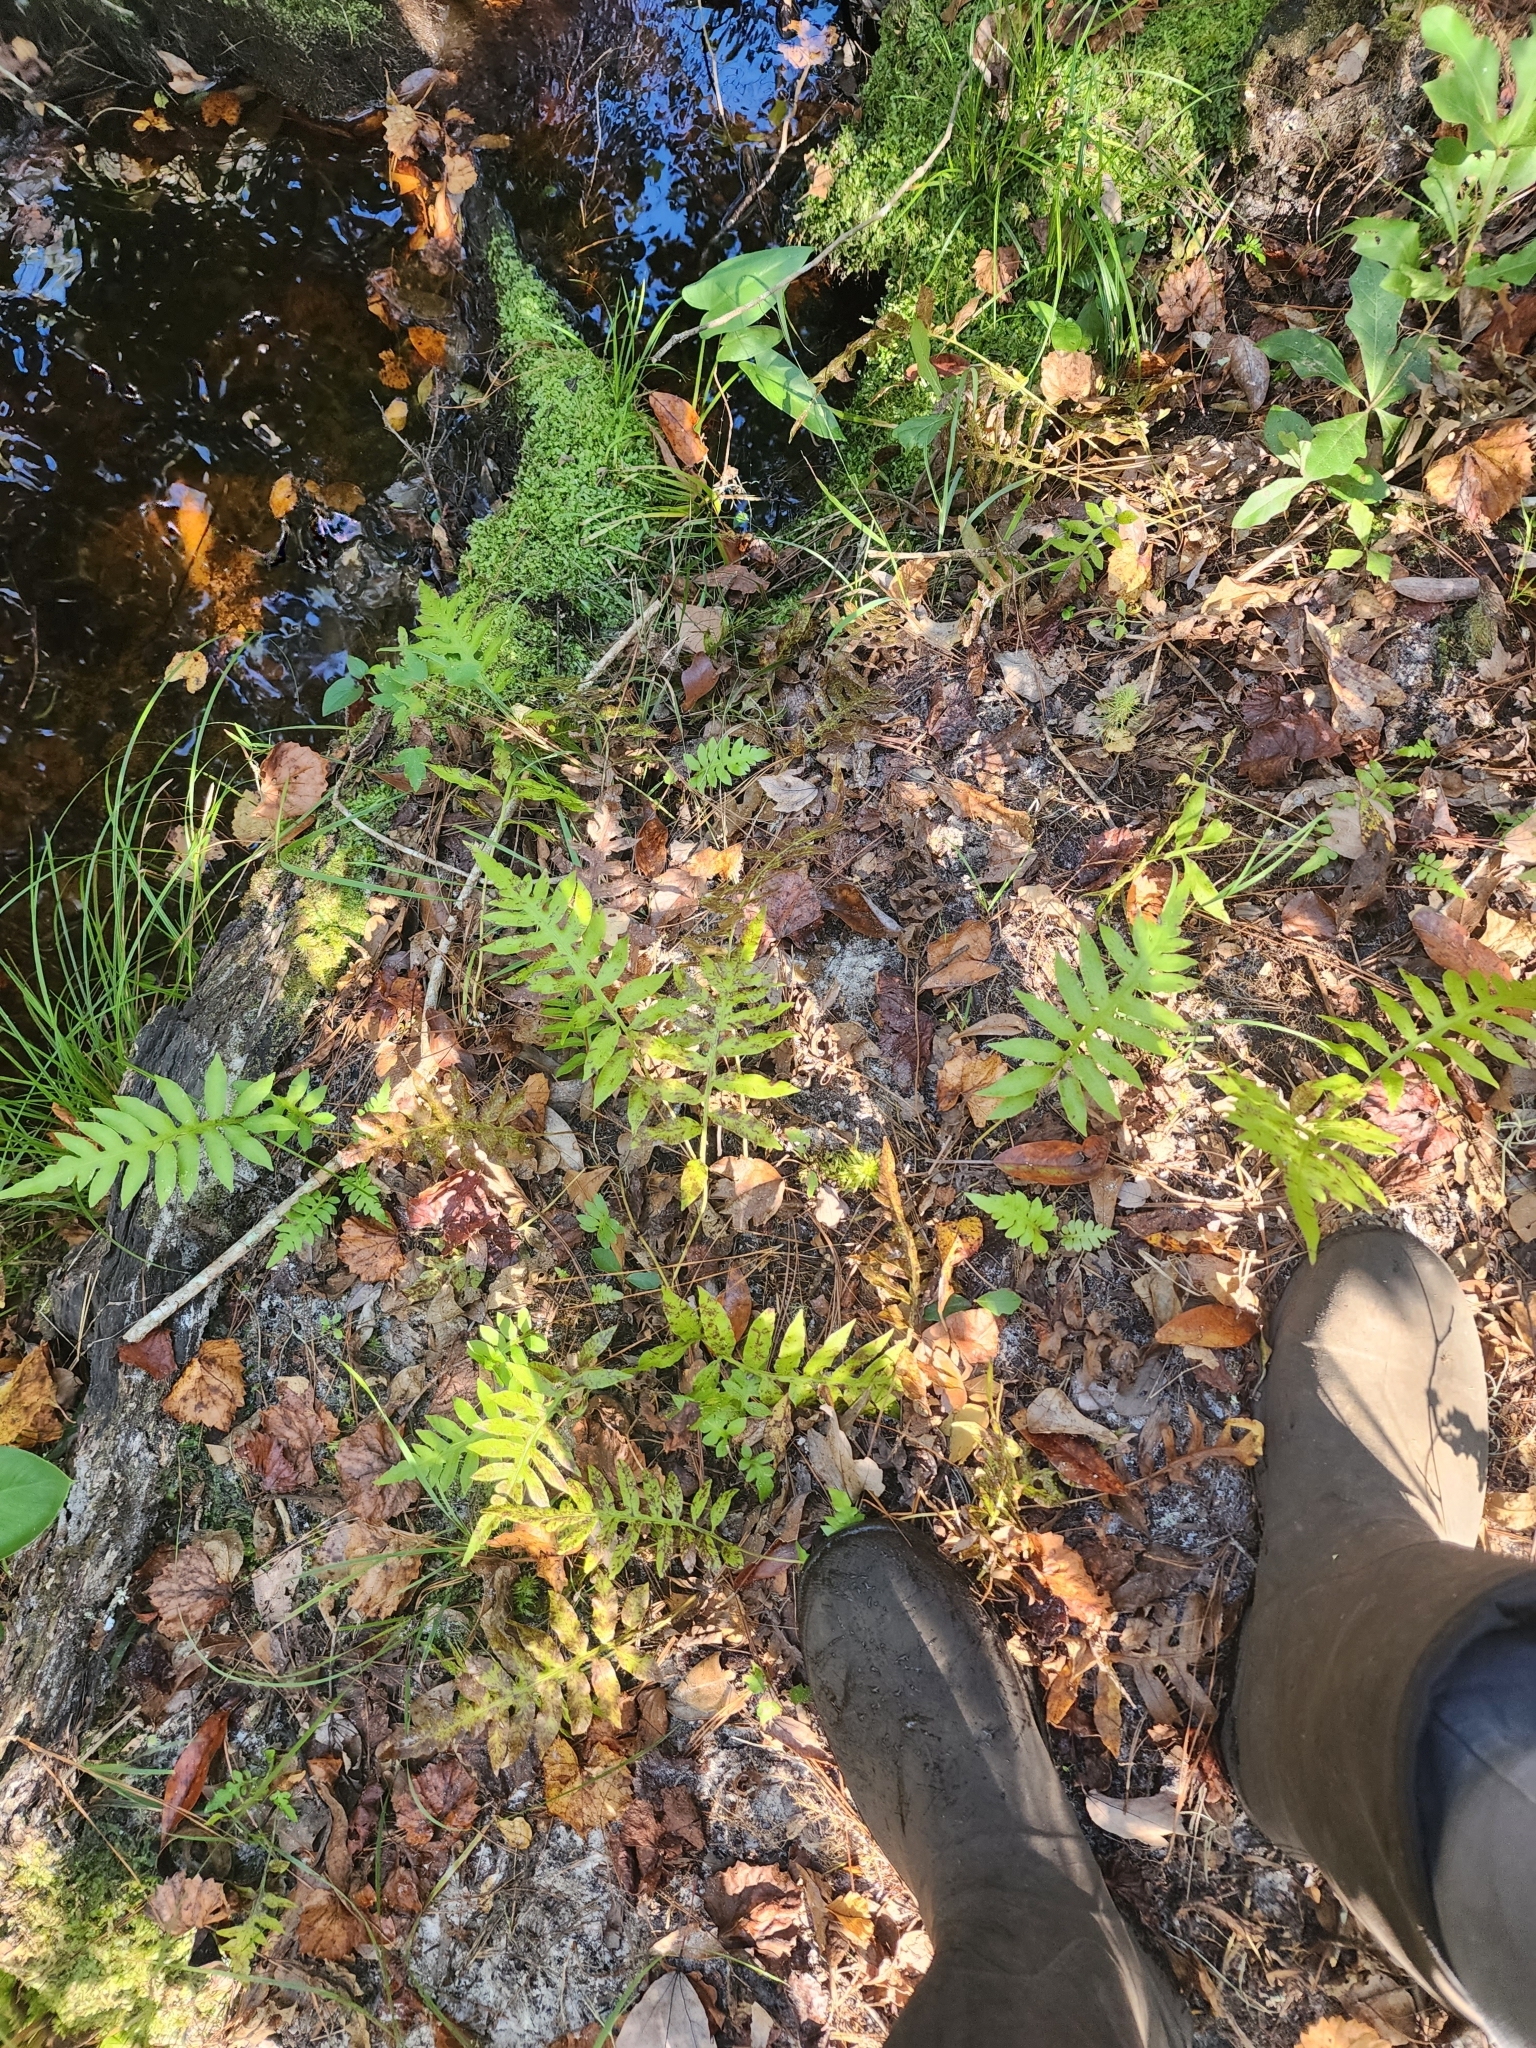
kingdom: Plantae
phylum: Tracheophyta
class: Polypodiopsida
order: Polypodiales
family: Blechnaceae
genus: Lorinseria
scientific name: Lorinseria areolata
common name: Dwarf chain fern
